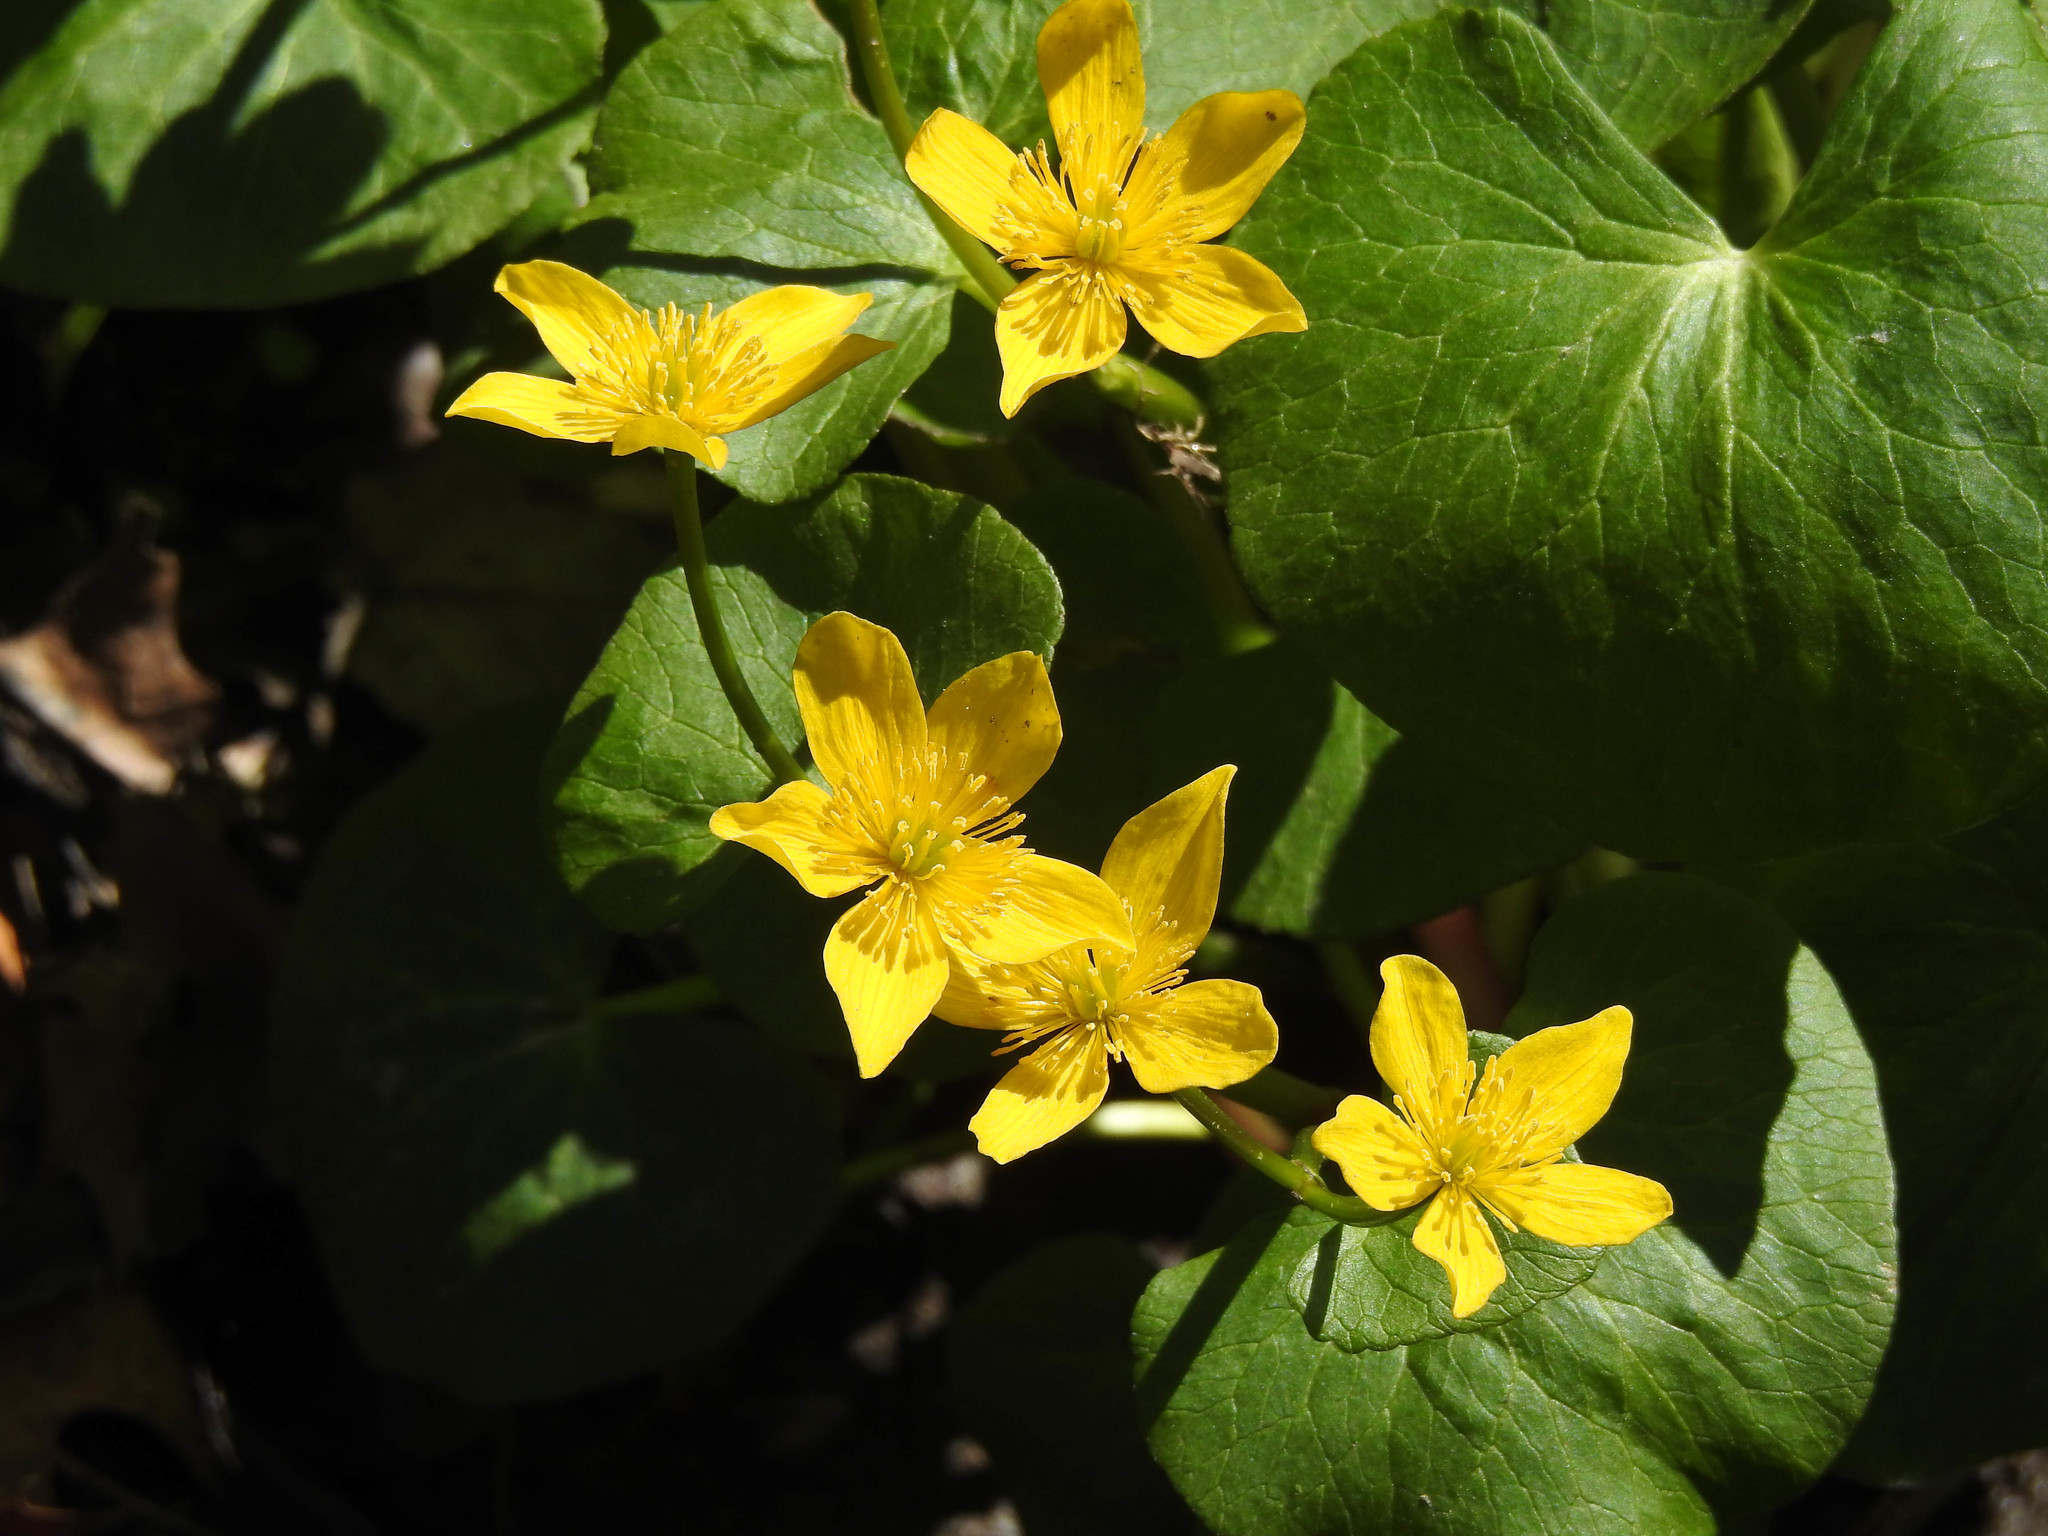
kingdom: Plantae
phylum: Tracheophyta
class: Magnoliopsida
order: Ranunculales
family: Ranunculaceae
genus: Caltha
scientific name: Caltha palustris
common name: Marsh marigold
